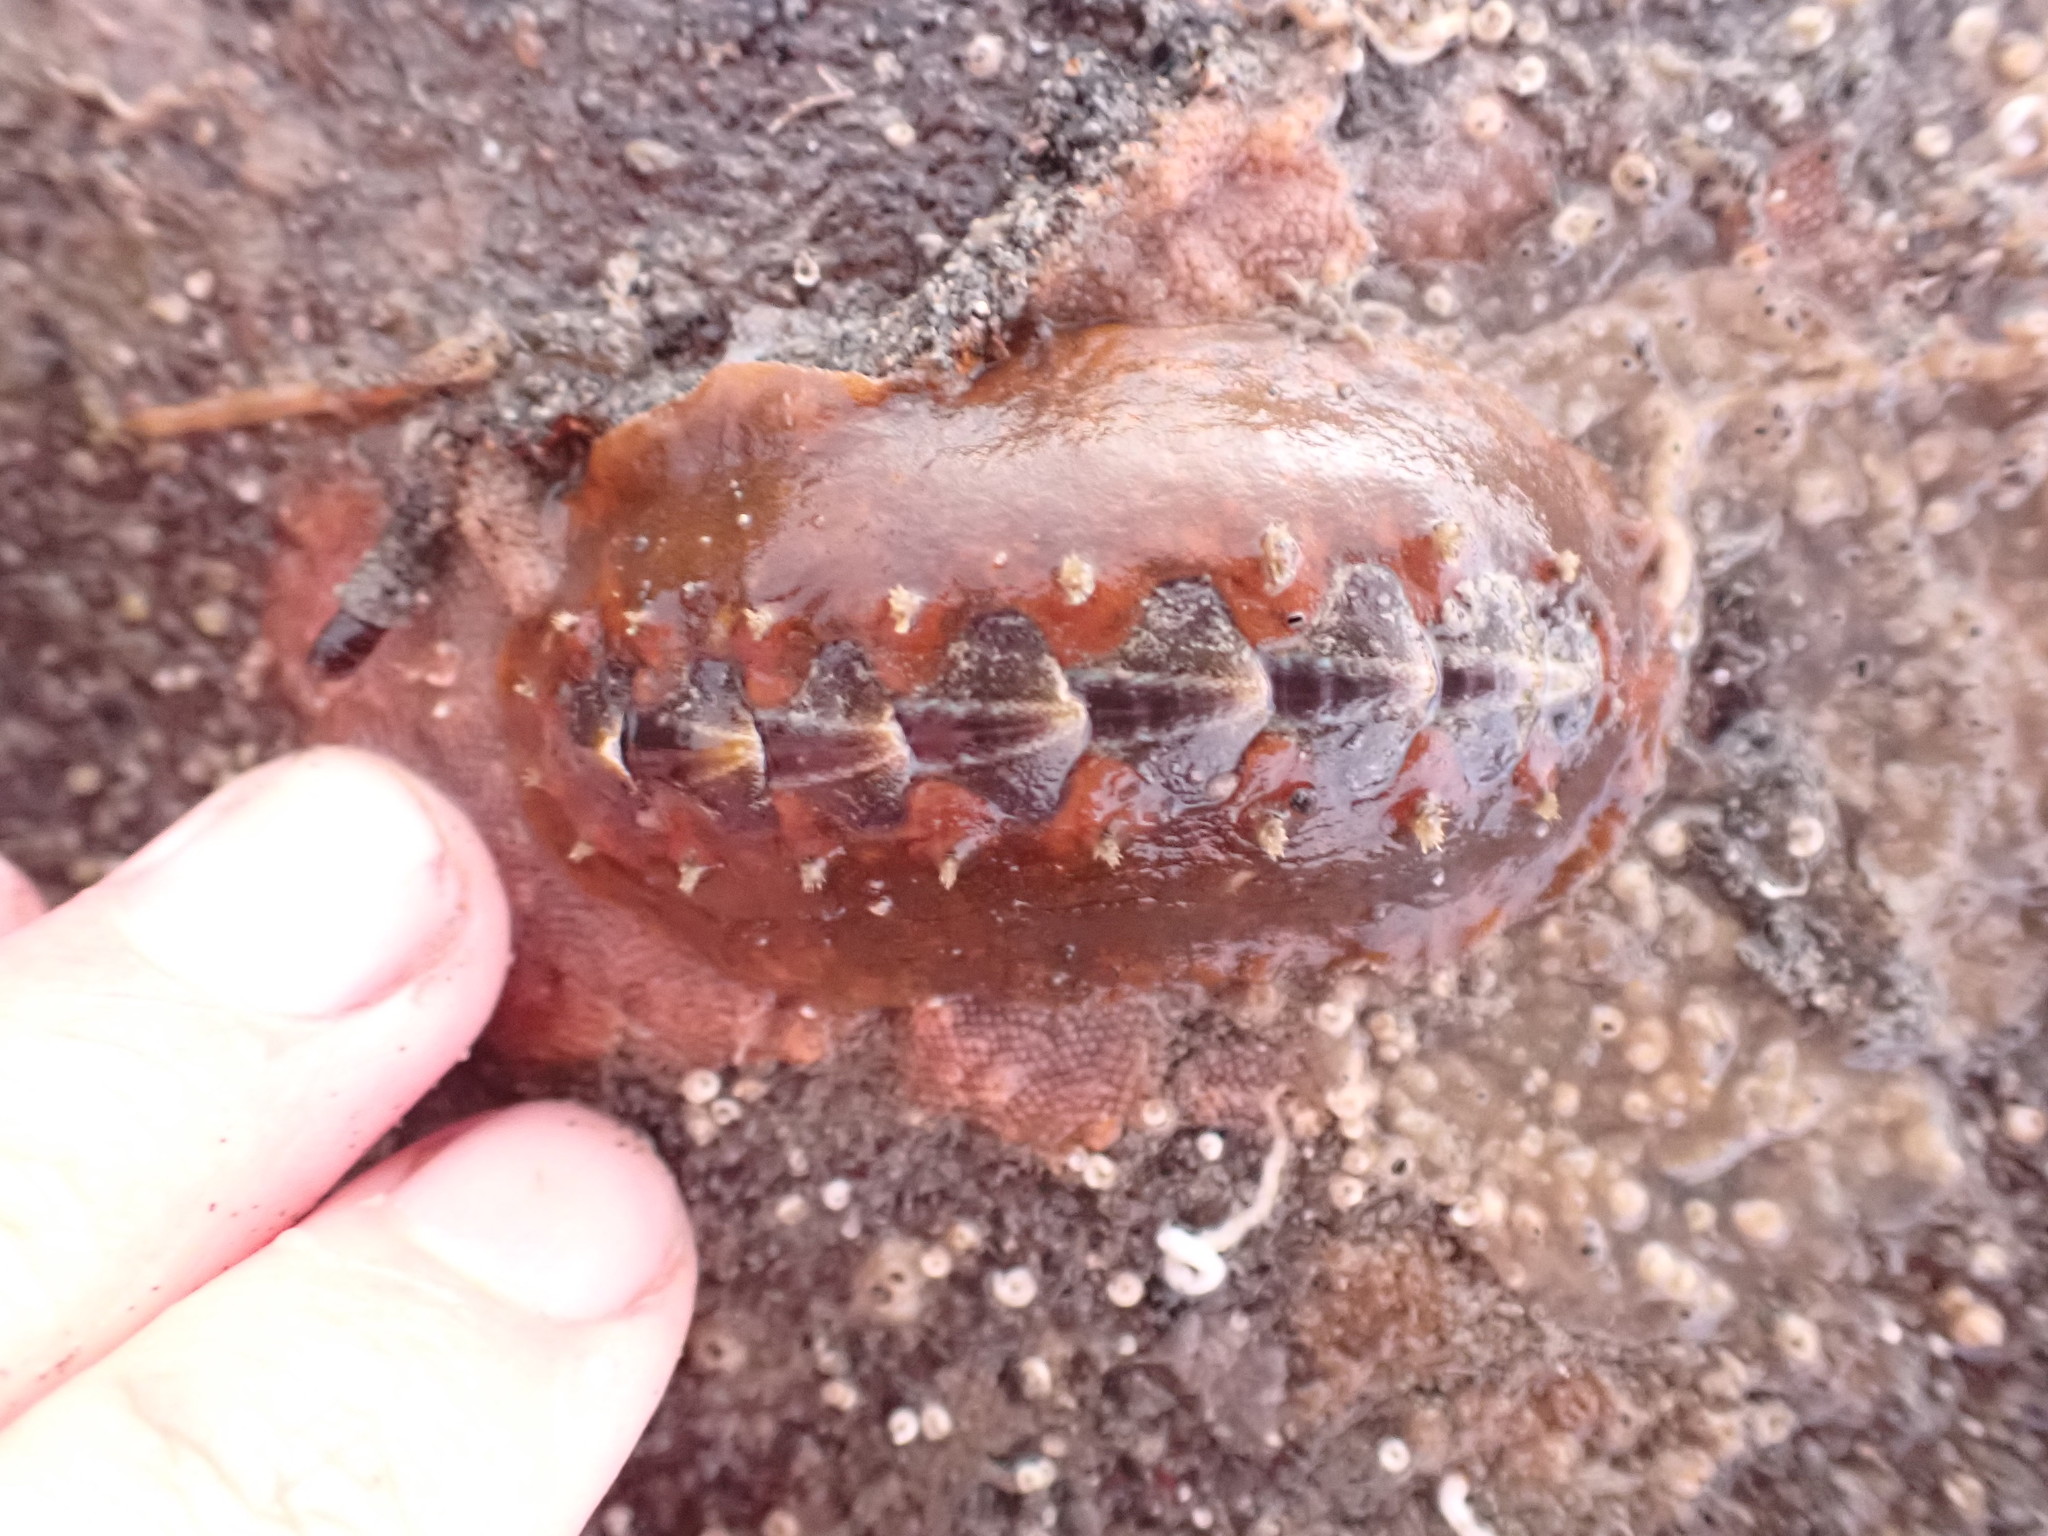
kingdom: Animalia
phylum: Mollusca
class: Polyplacophora
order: Chitonida
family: Acanthochitonidae
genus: Notoplax
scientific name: Notoplax violacea
